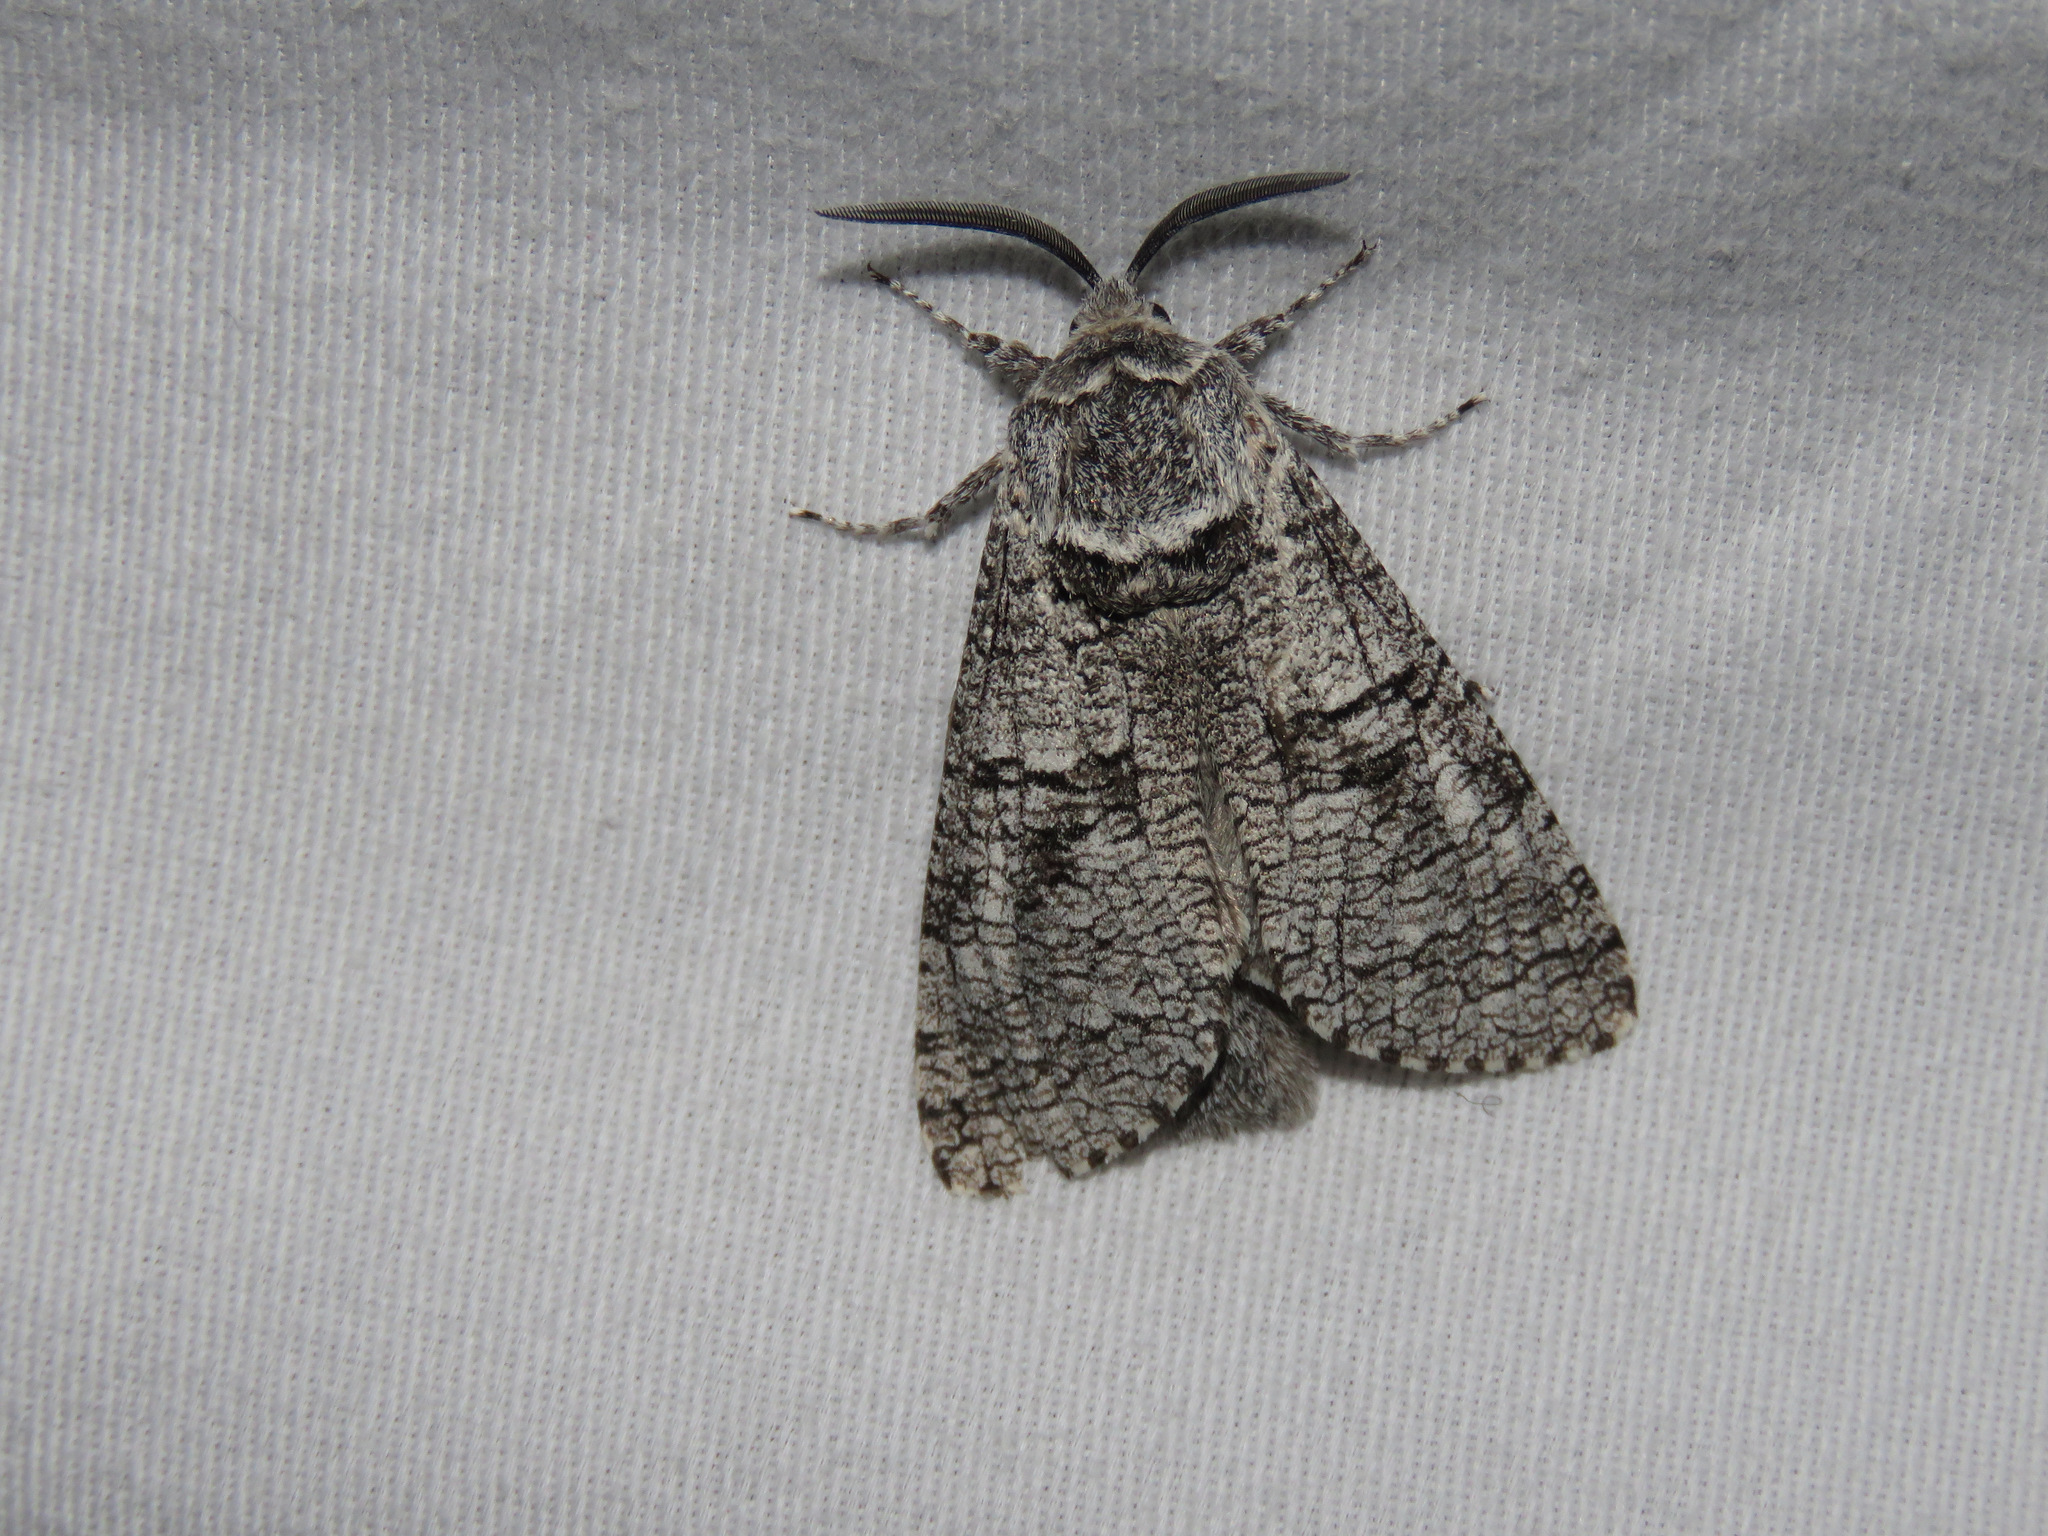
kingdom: Animalia
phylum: Arthropoda
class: Insecta
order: Lepidoptera
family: Cossidae
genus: Acossus
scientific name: Acossus populi
